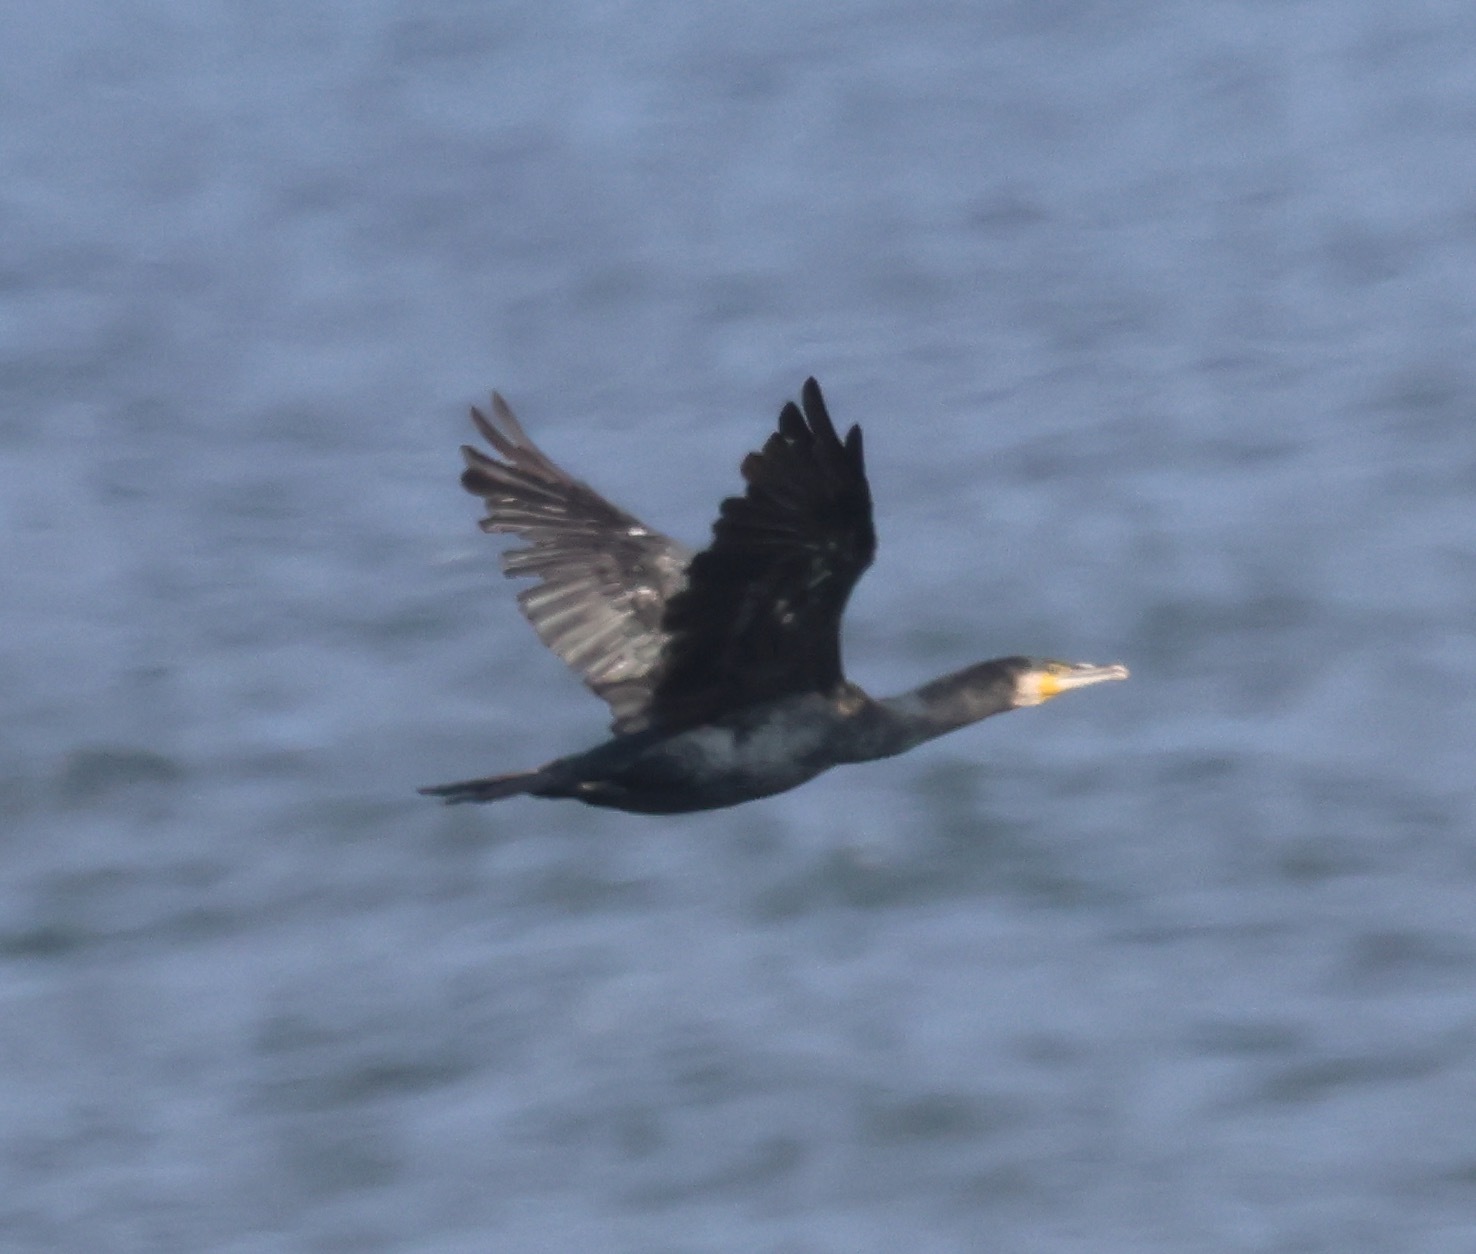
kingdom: Animalia
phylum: Chordata
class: Aves
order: Suliformes
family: Phalacrocoracidae
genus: Phalacrocorax
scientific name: Phalacrocorax carbo
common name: Great cormorant
